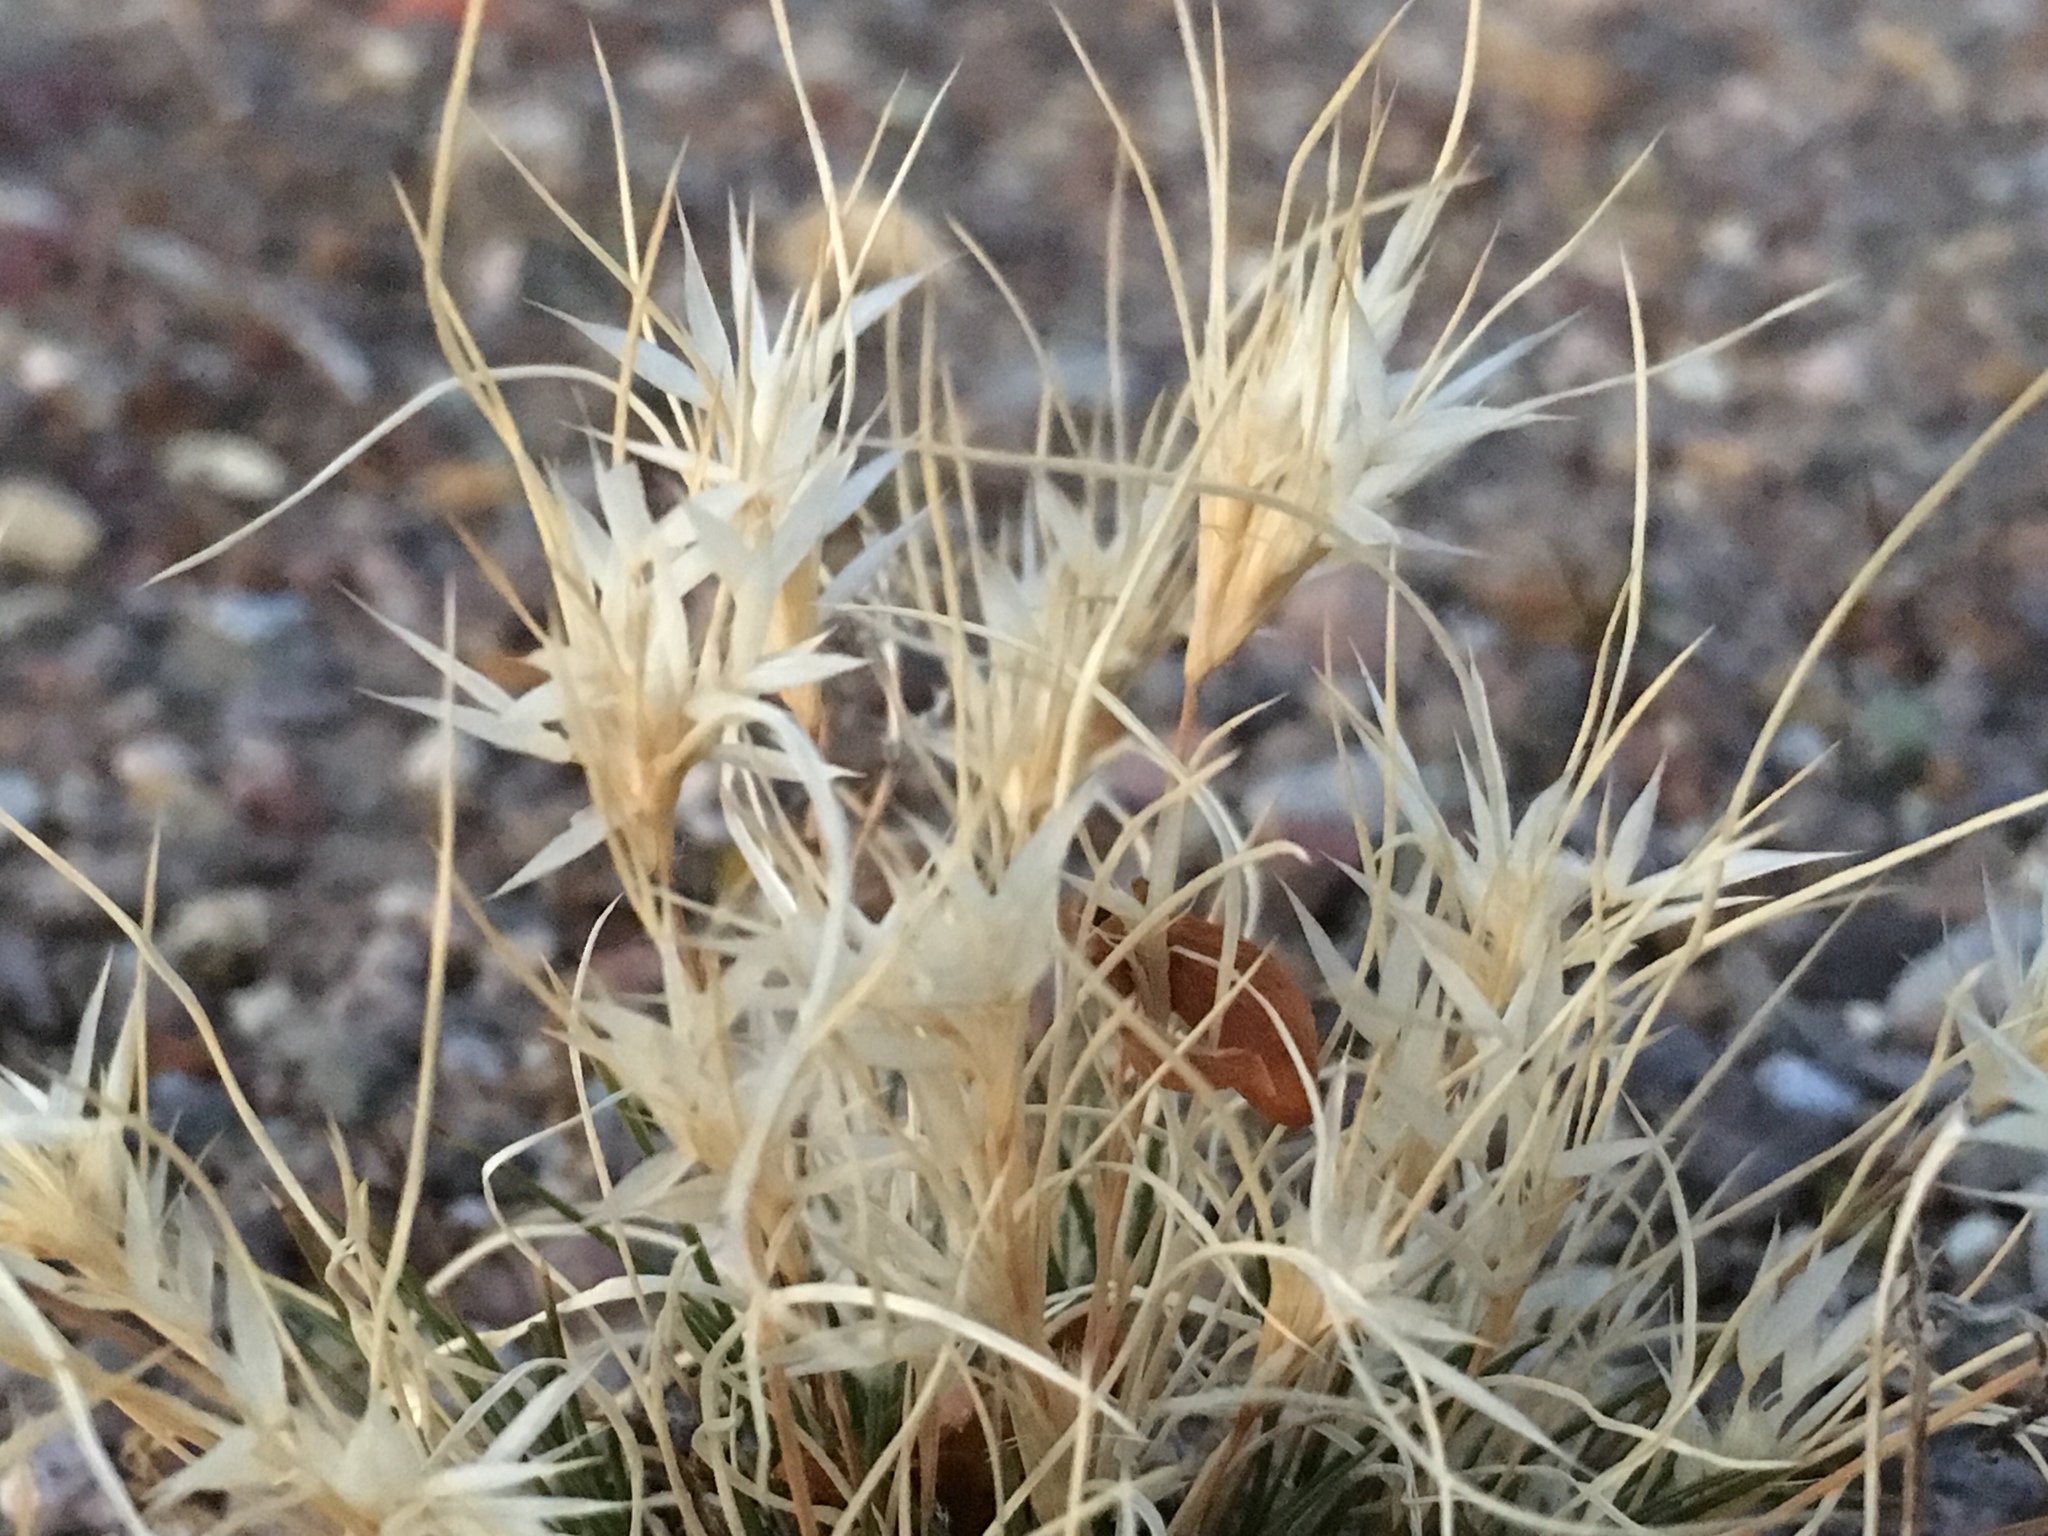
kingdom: Plantae
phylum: Tracheophyta
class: Liliopsida
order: Poales
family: Poaceae
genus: Dasyochloa
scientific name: Dasyochloa pulchella
